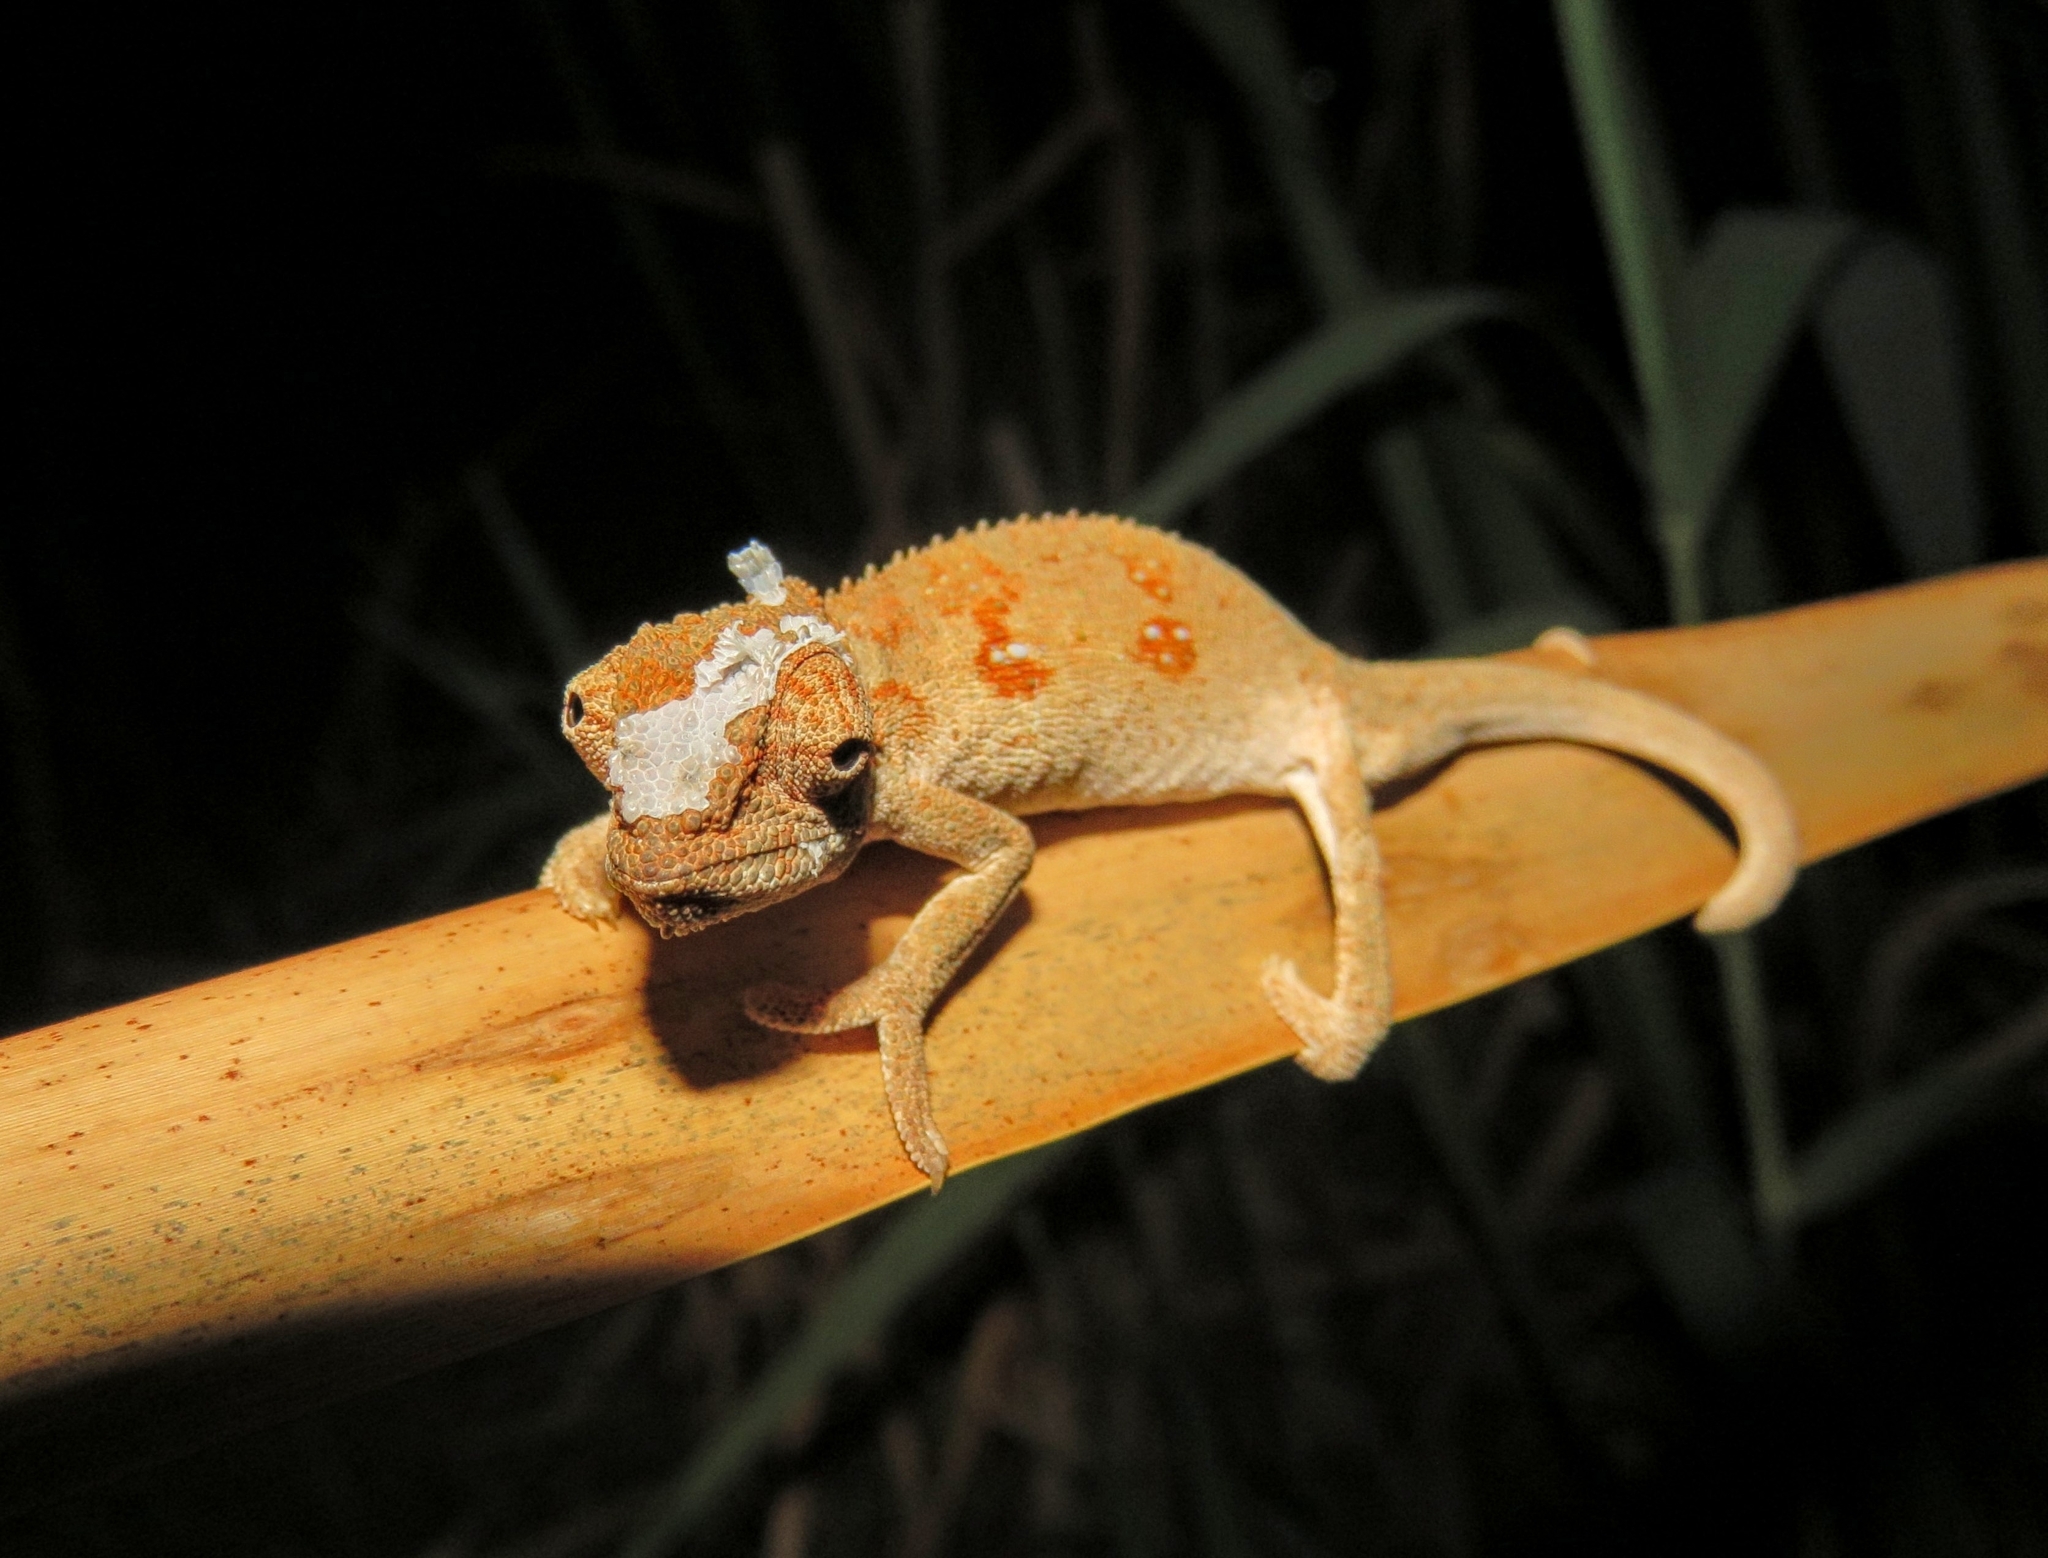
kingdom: Animalia
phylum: Chordata
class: Squamata
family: Chamaeleonidae
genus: Bradypodion
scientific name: Bradypodion melanocephalum
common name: Black-headed dwarf chameleon
